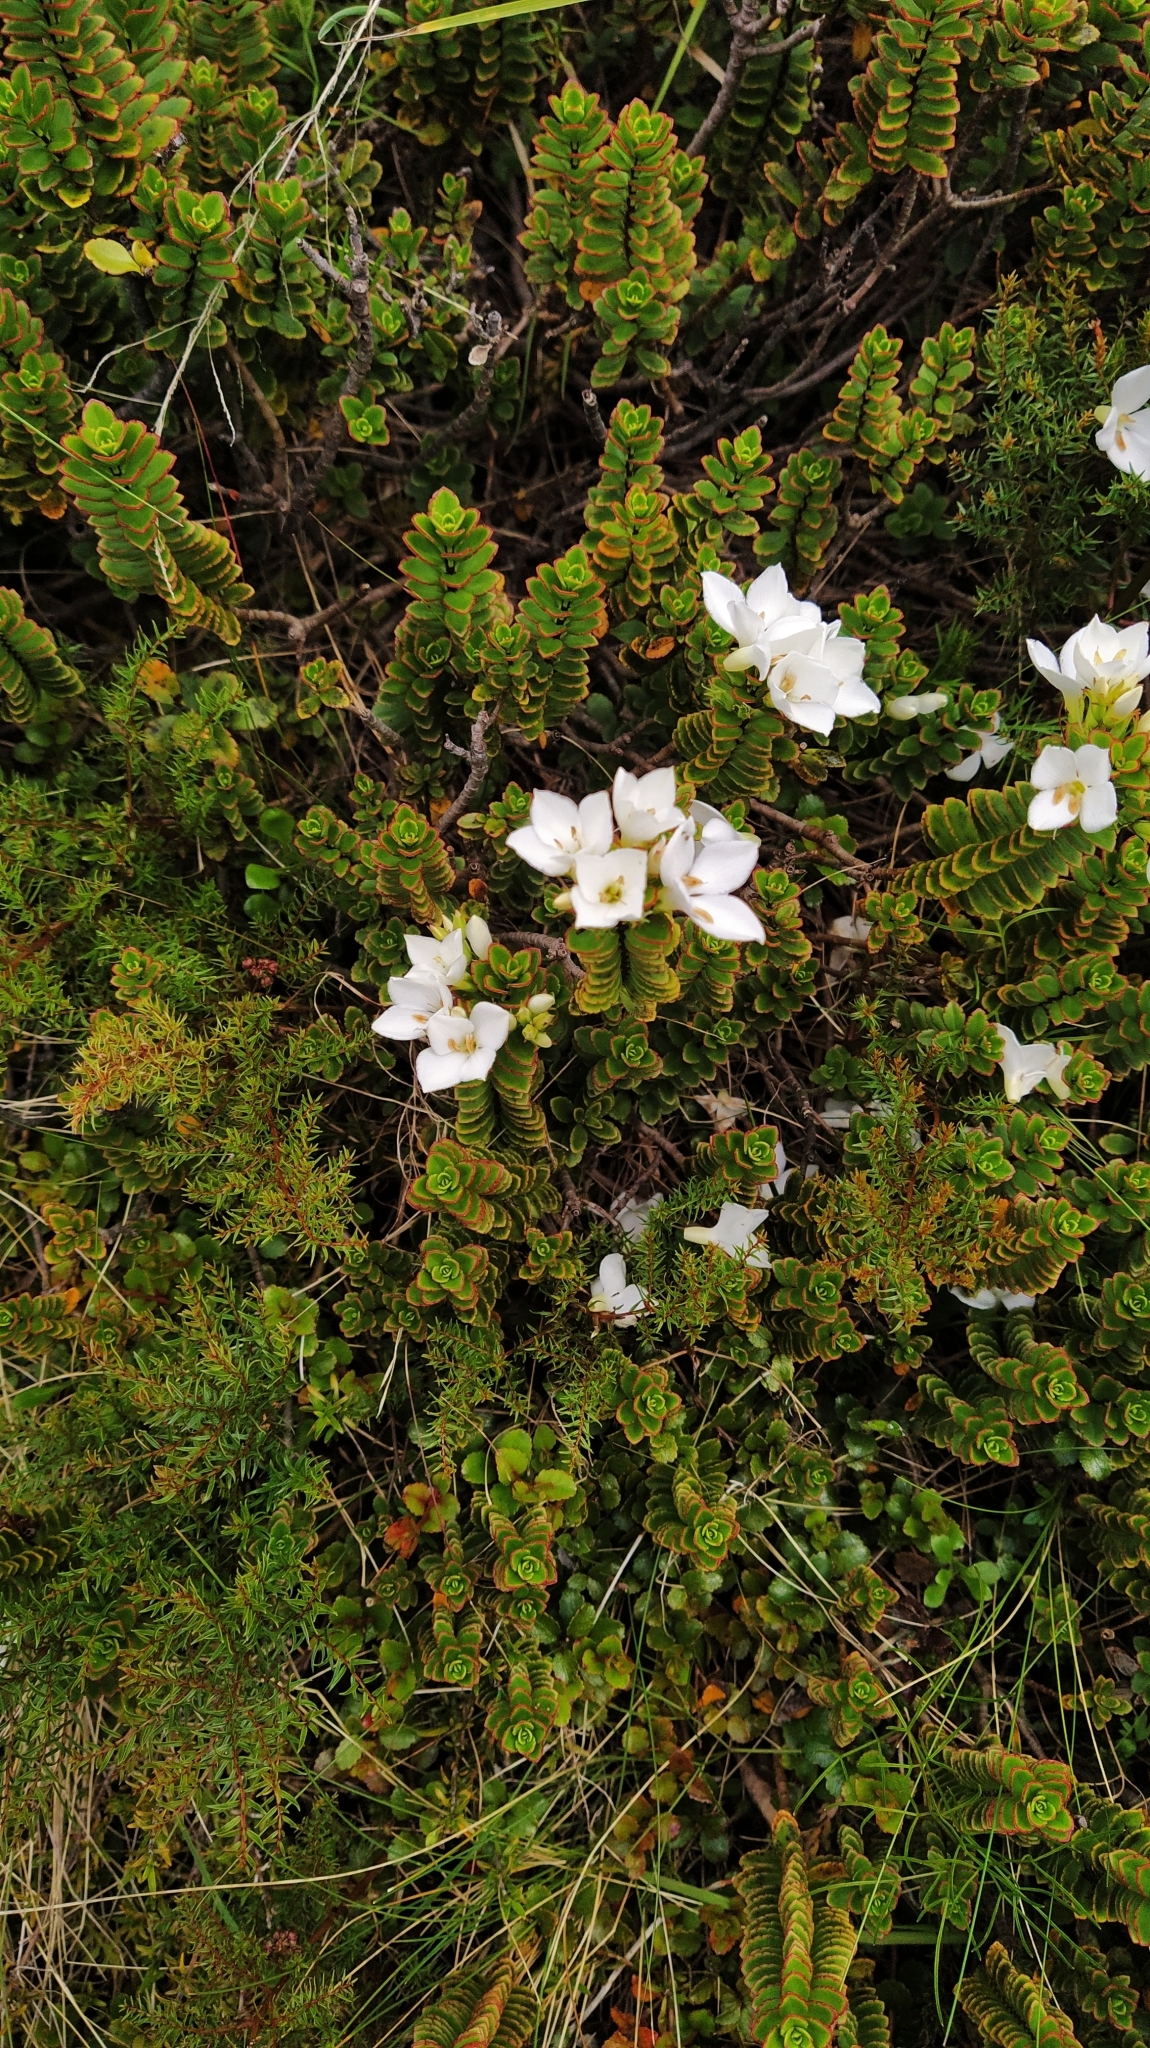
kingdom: Plantae
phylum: Tracheophyta
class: Magnoliopsida
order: Lamiales
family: Plantaginaceae
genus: Veronica
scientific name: Veronica macrantha
